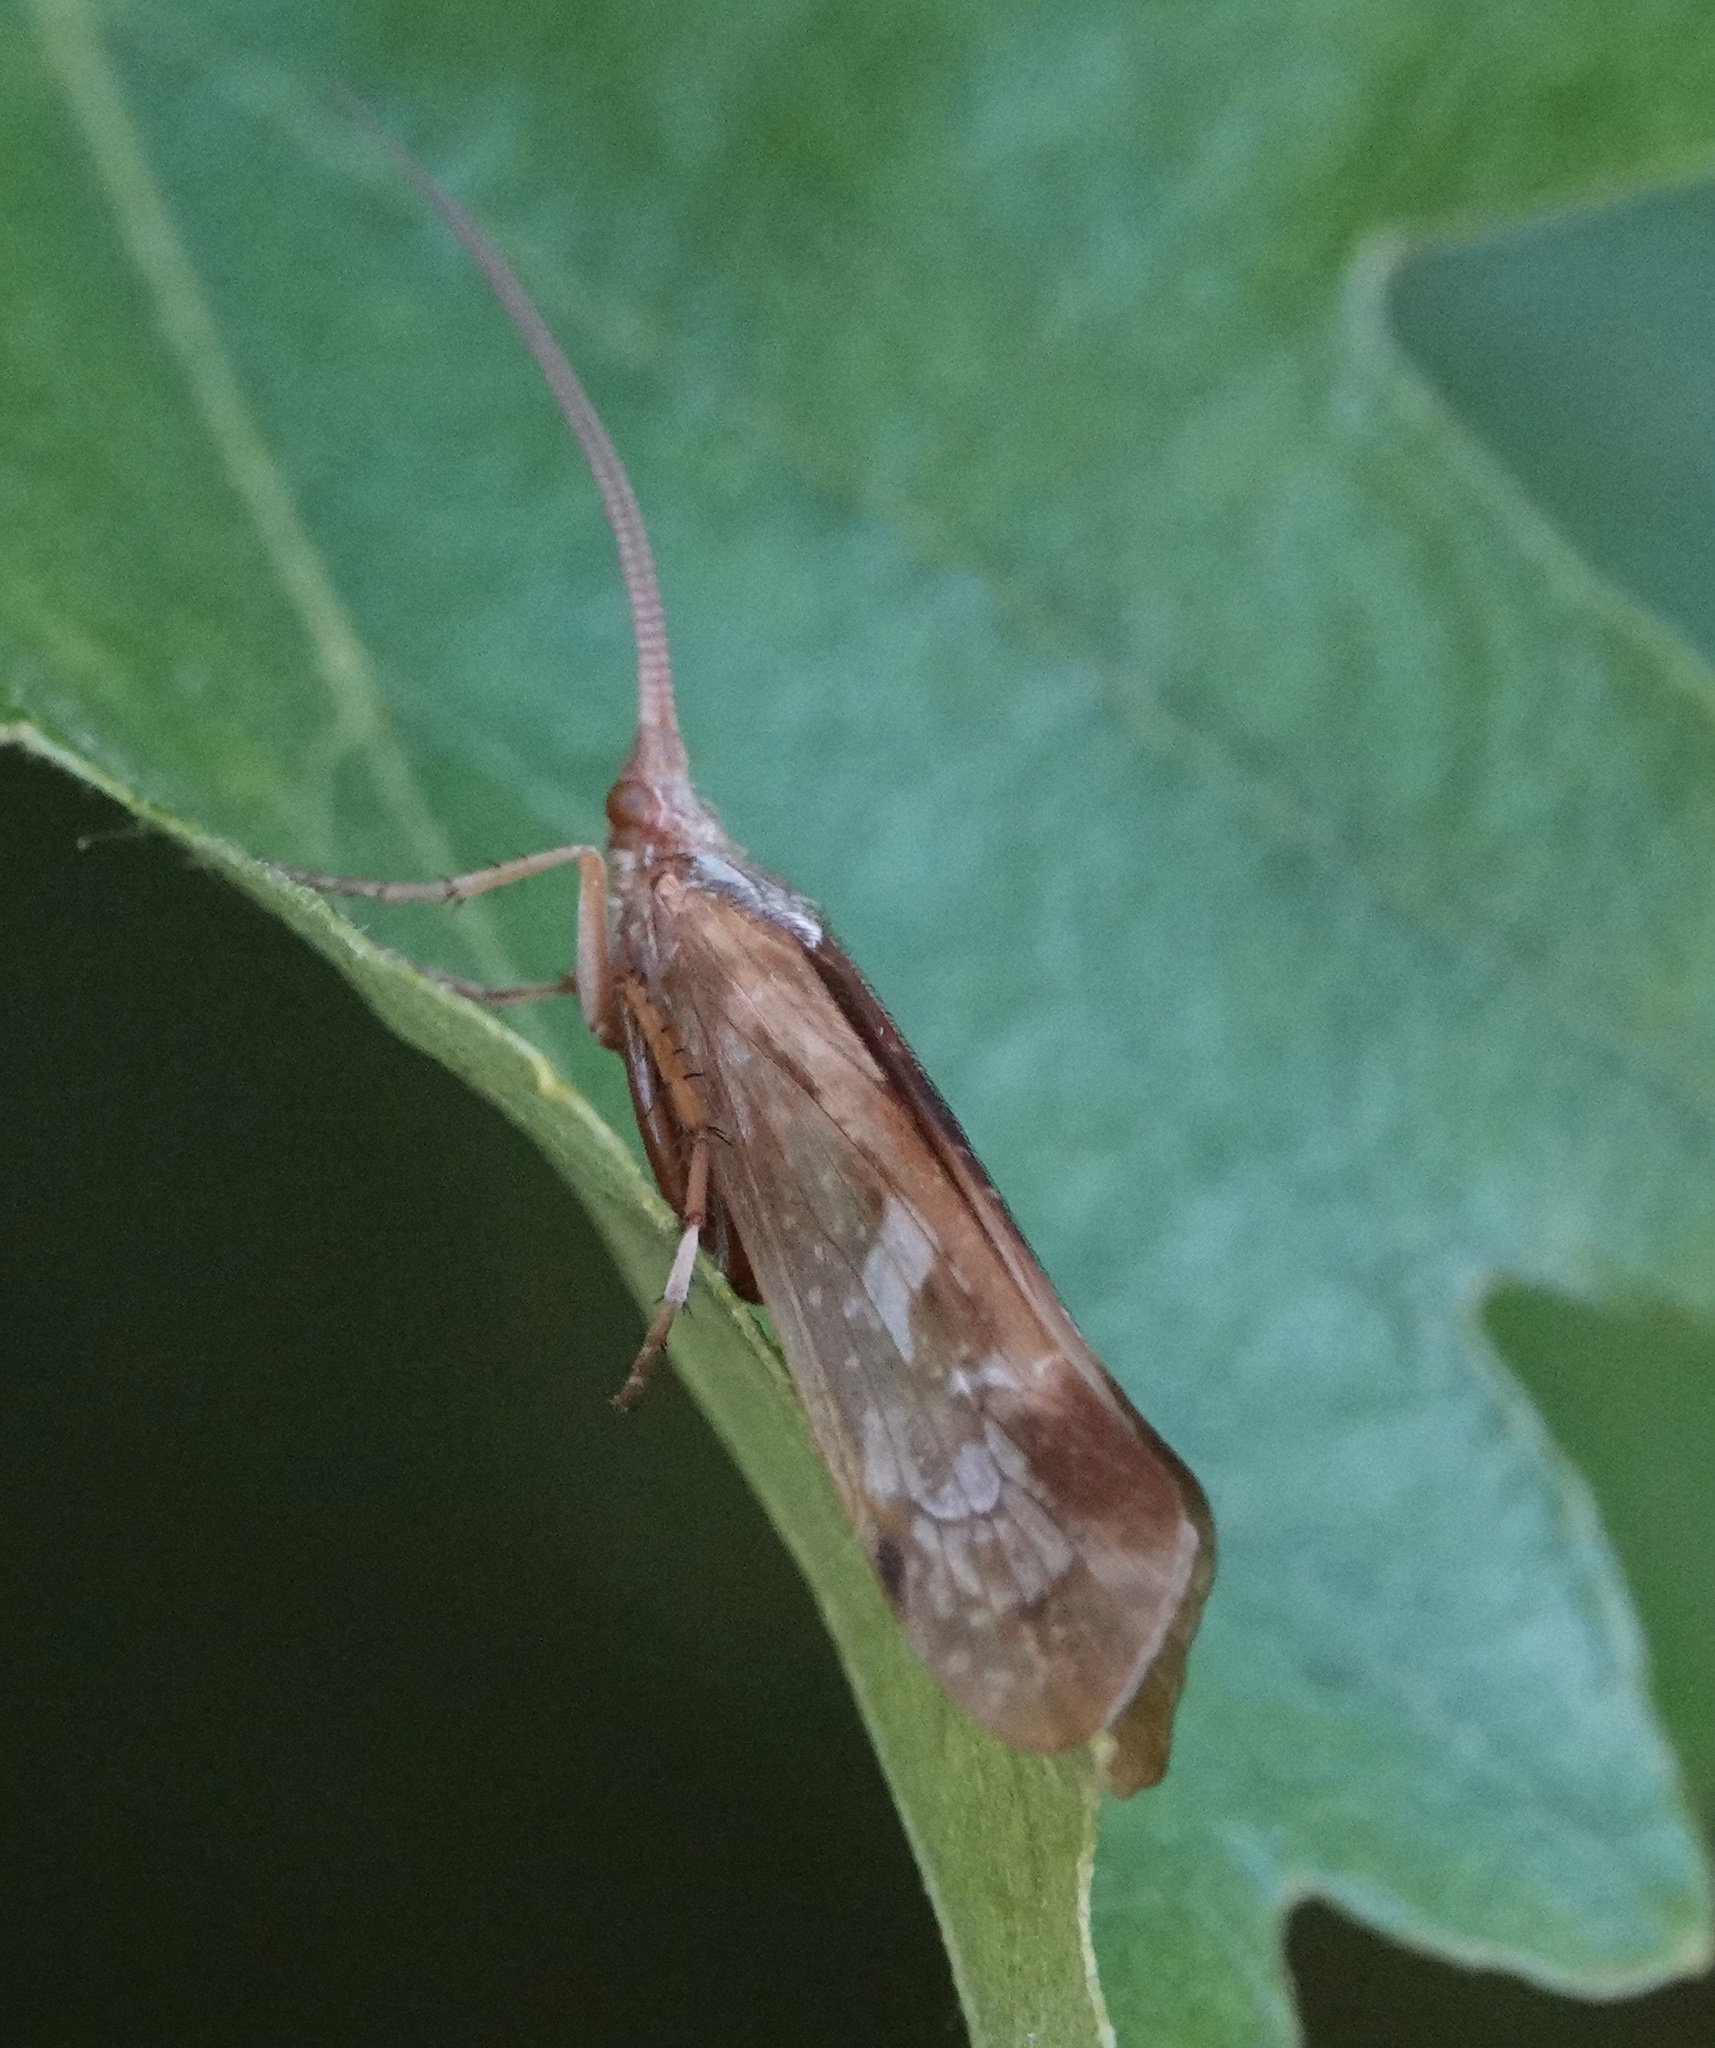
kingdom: Animalia
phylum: Arthropoda
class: Insecta
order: Trichoptera
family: Limnephilidae
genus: Limnephilus
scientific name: Limnephilus lunatus
